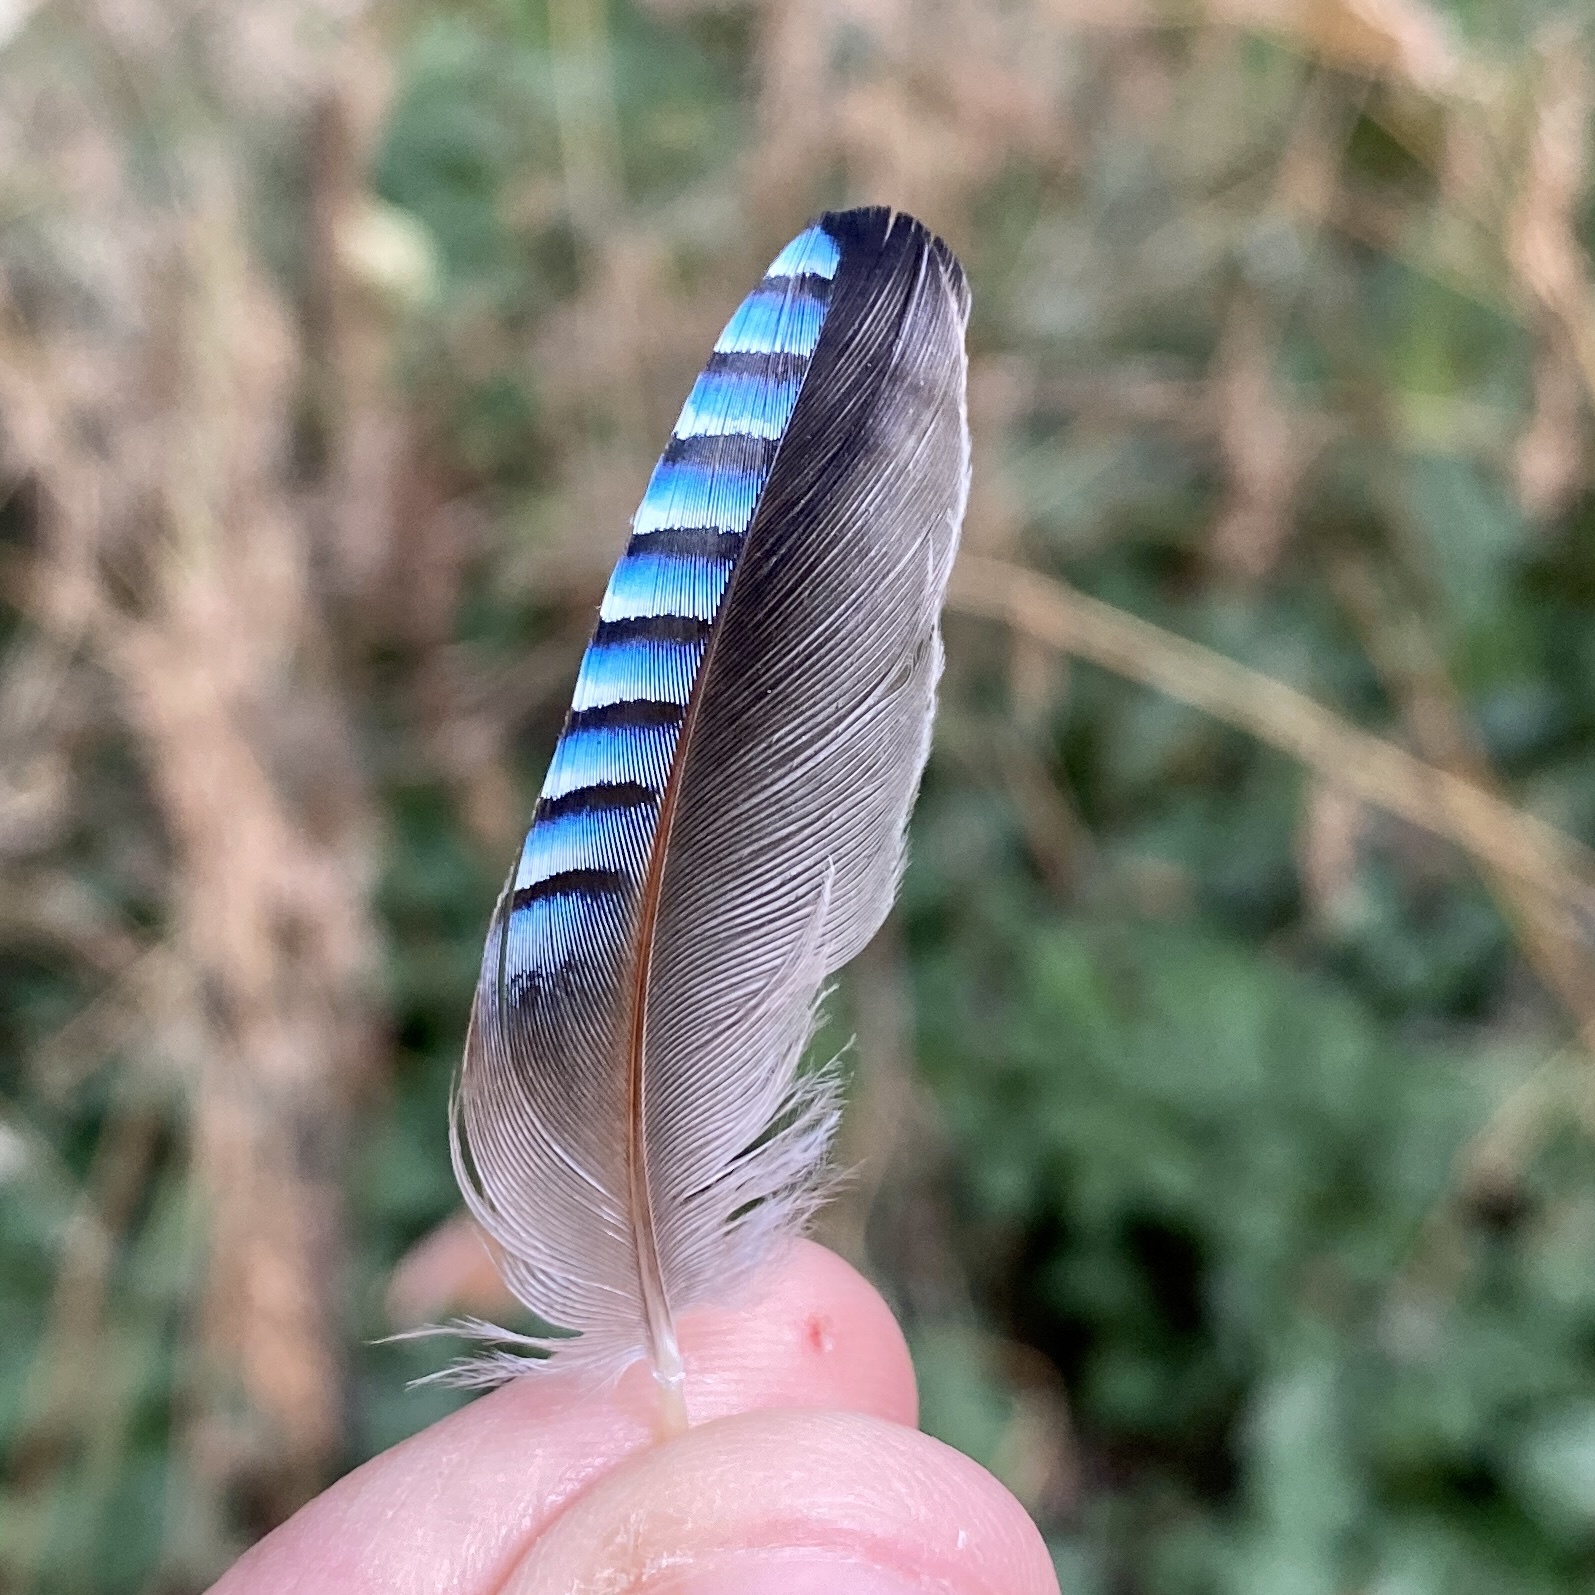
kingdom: Animalia
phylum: Chordata
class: Aves
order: Passeriformes
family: Corvidae
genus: Garrulus
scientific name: Garrulus glandarius
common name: Eurasian jay
